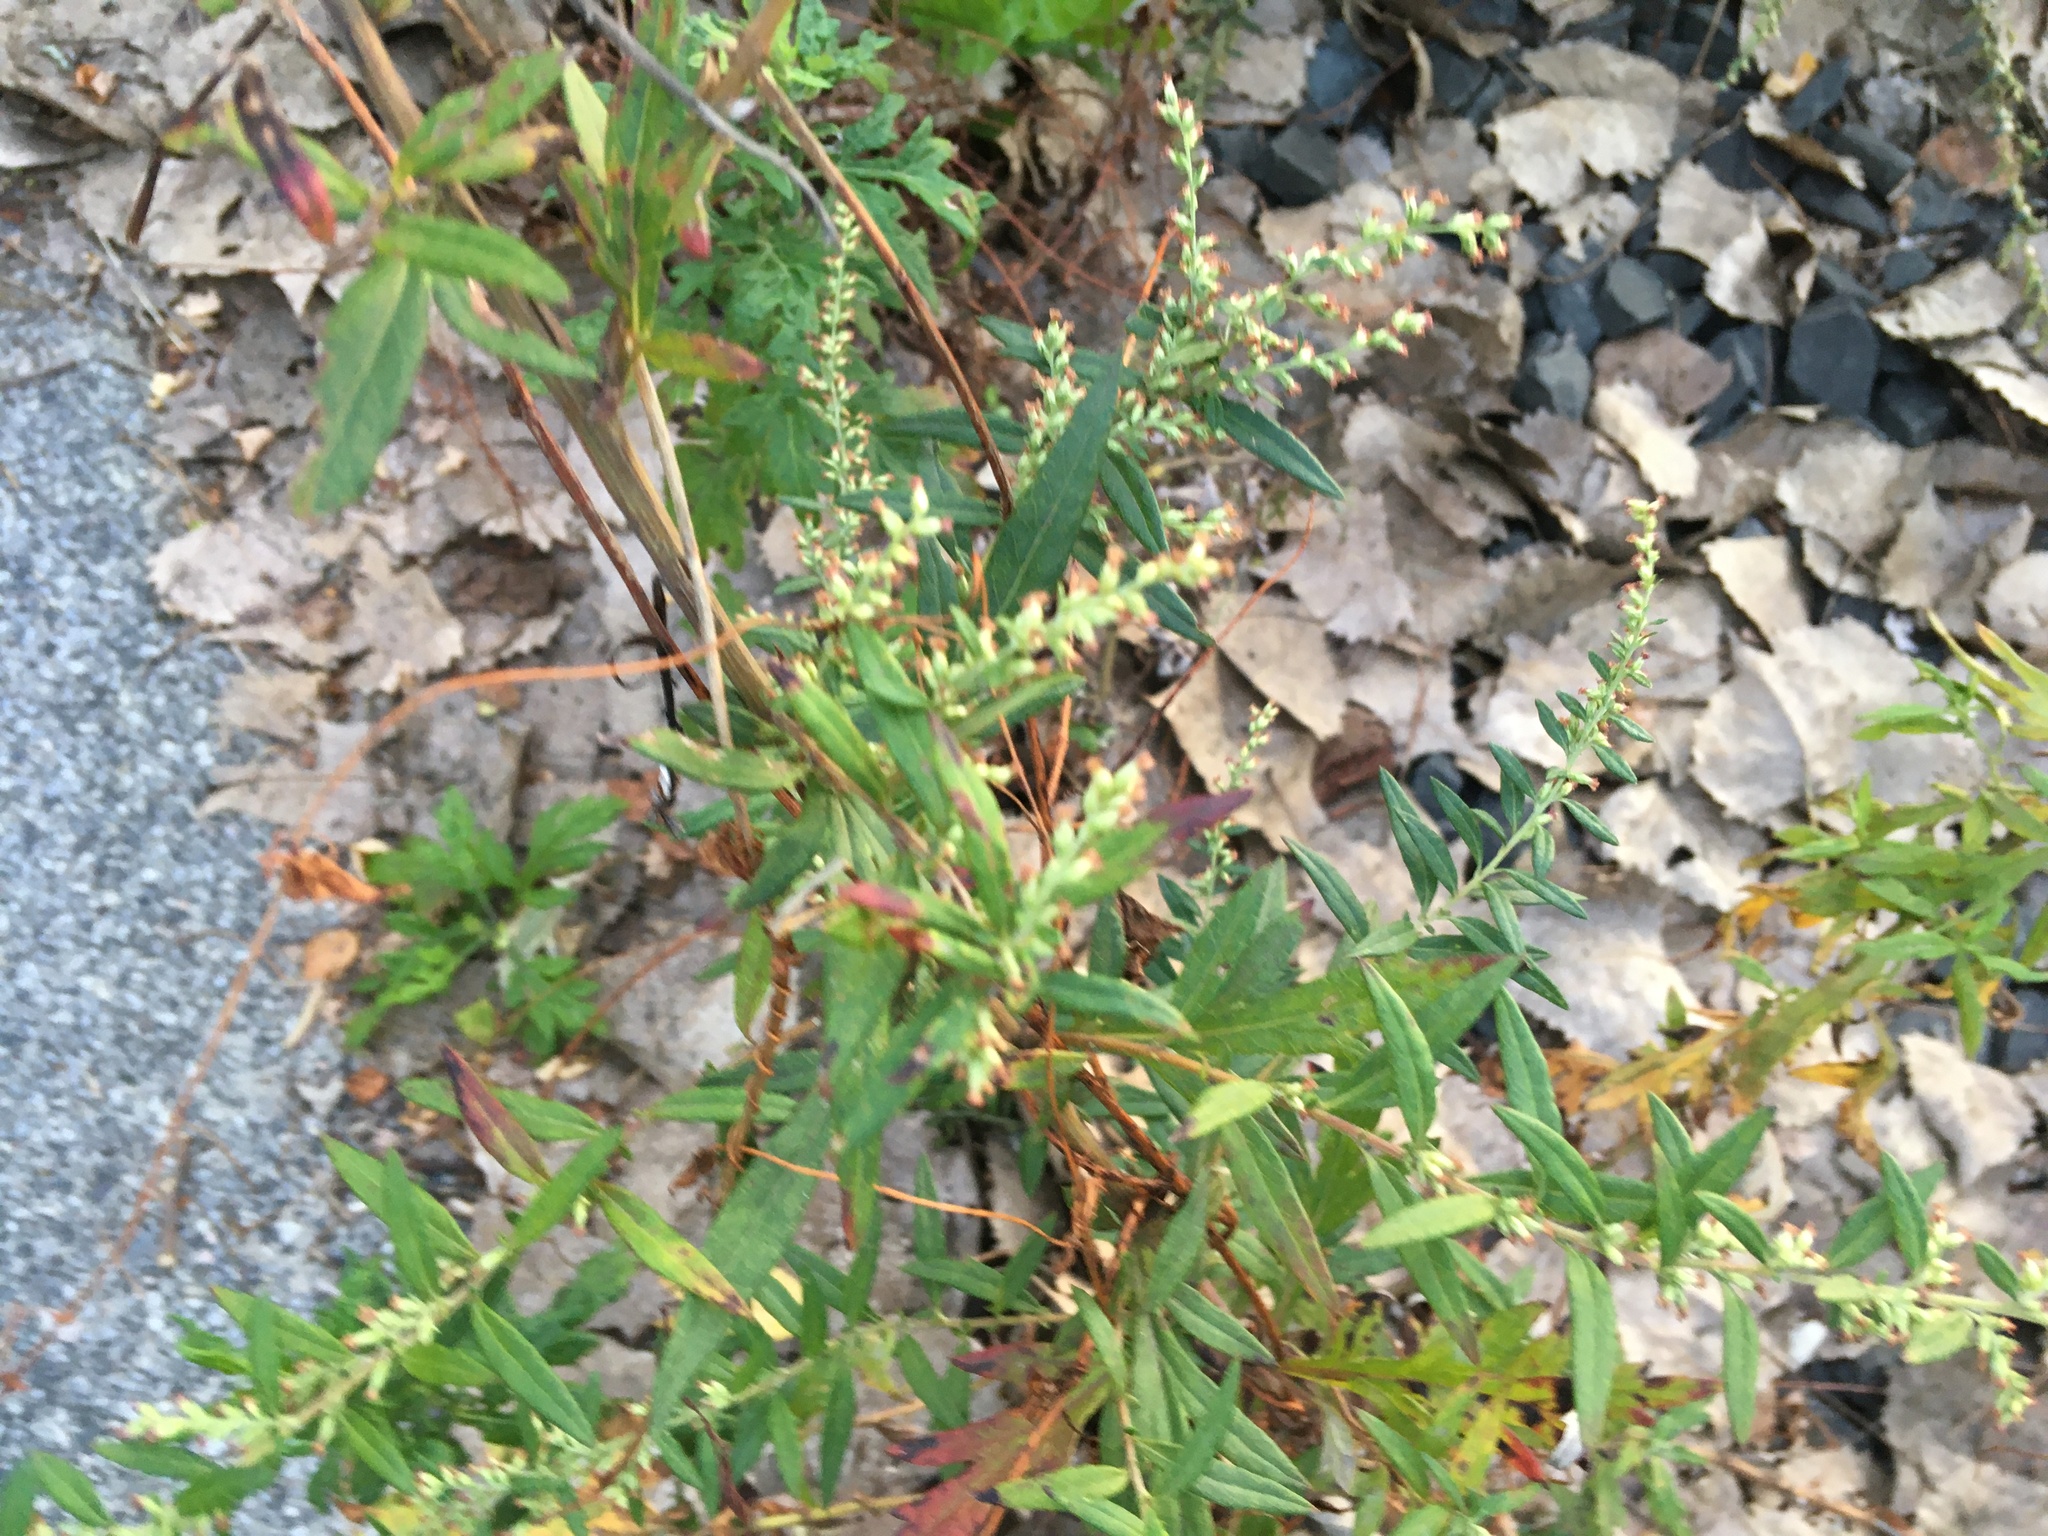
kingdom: Plantae
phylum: Tracheophyta
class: Magnoliopsida
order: Asterales
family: Asteraceae
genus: Artemisia
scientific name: Artemisia vulgaris
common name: Mugwort
